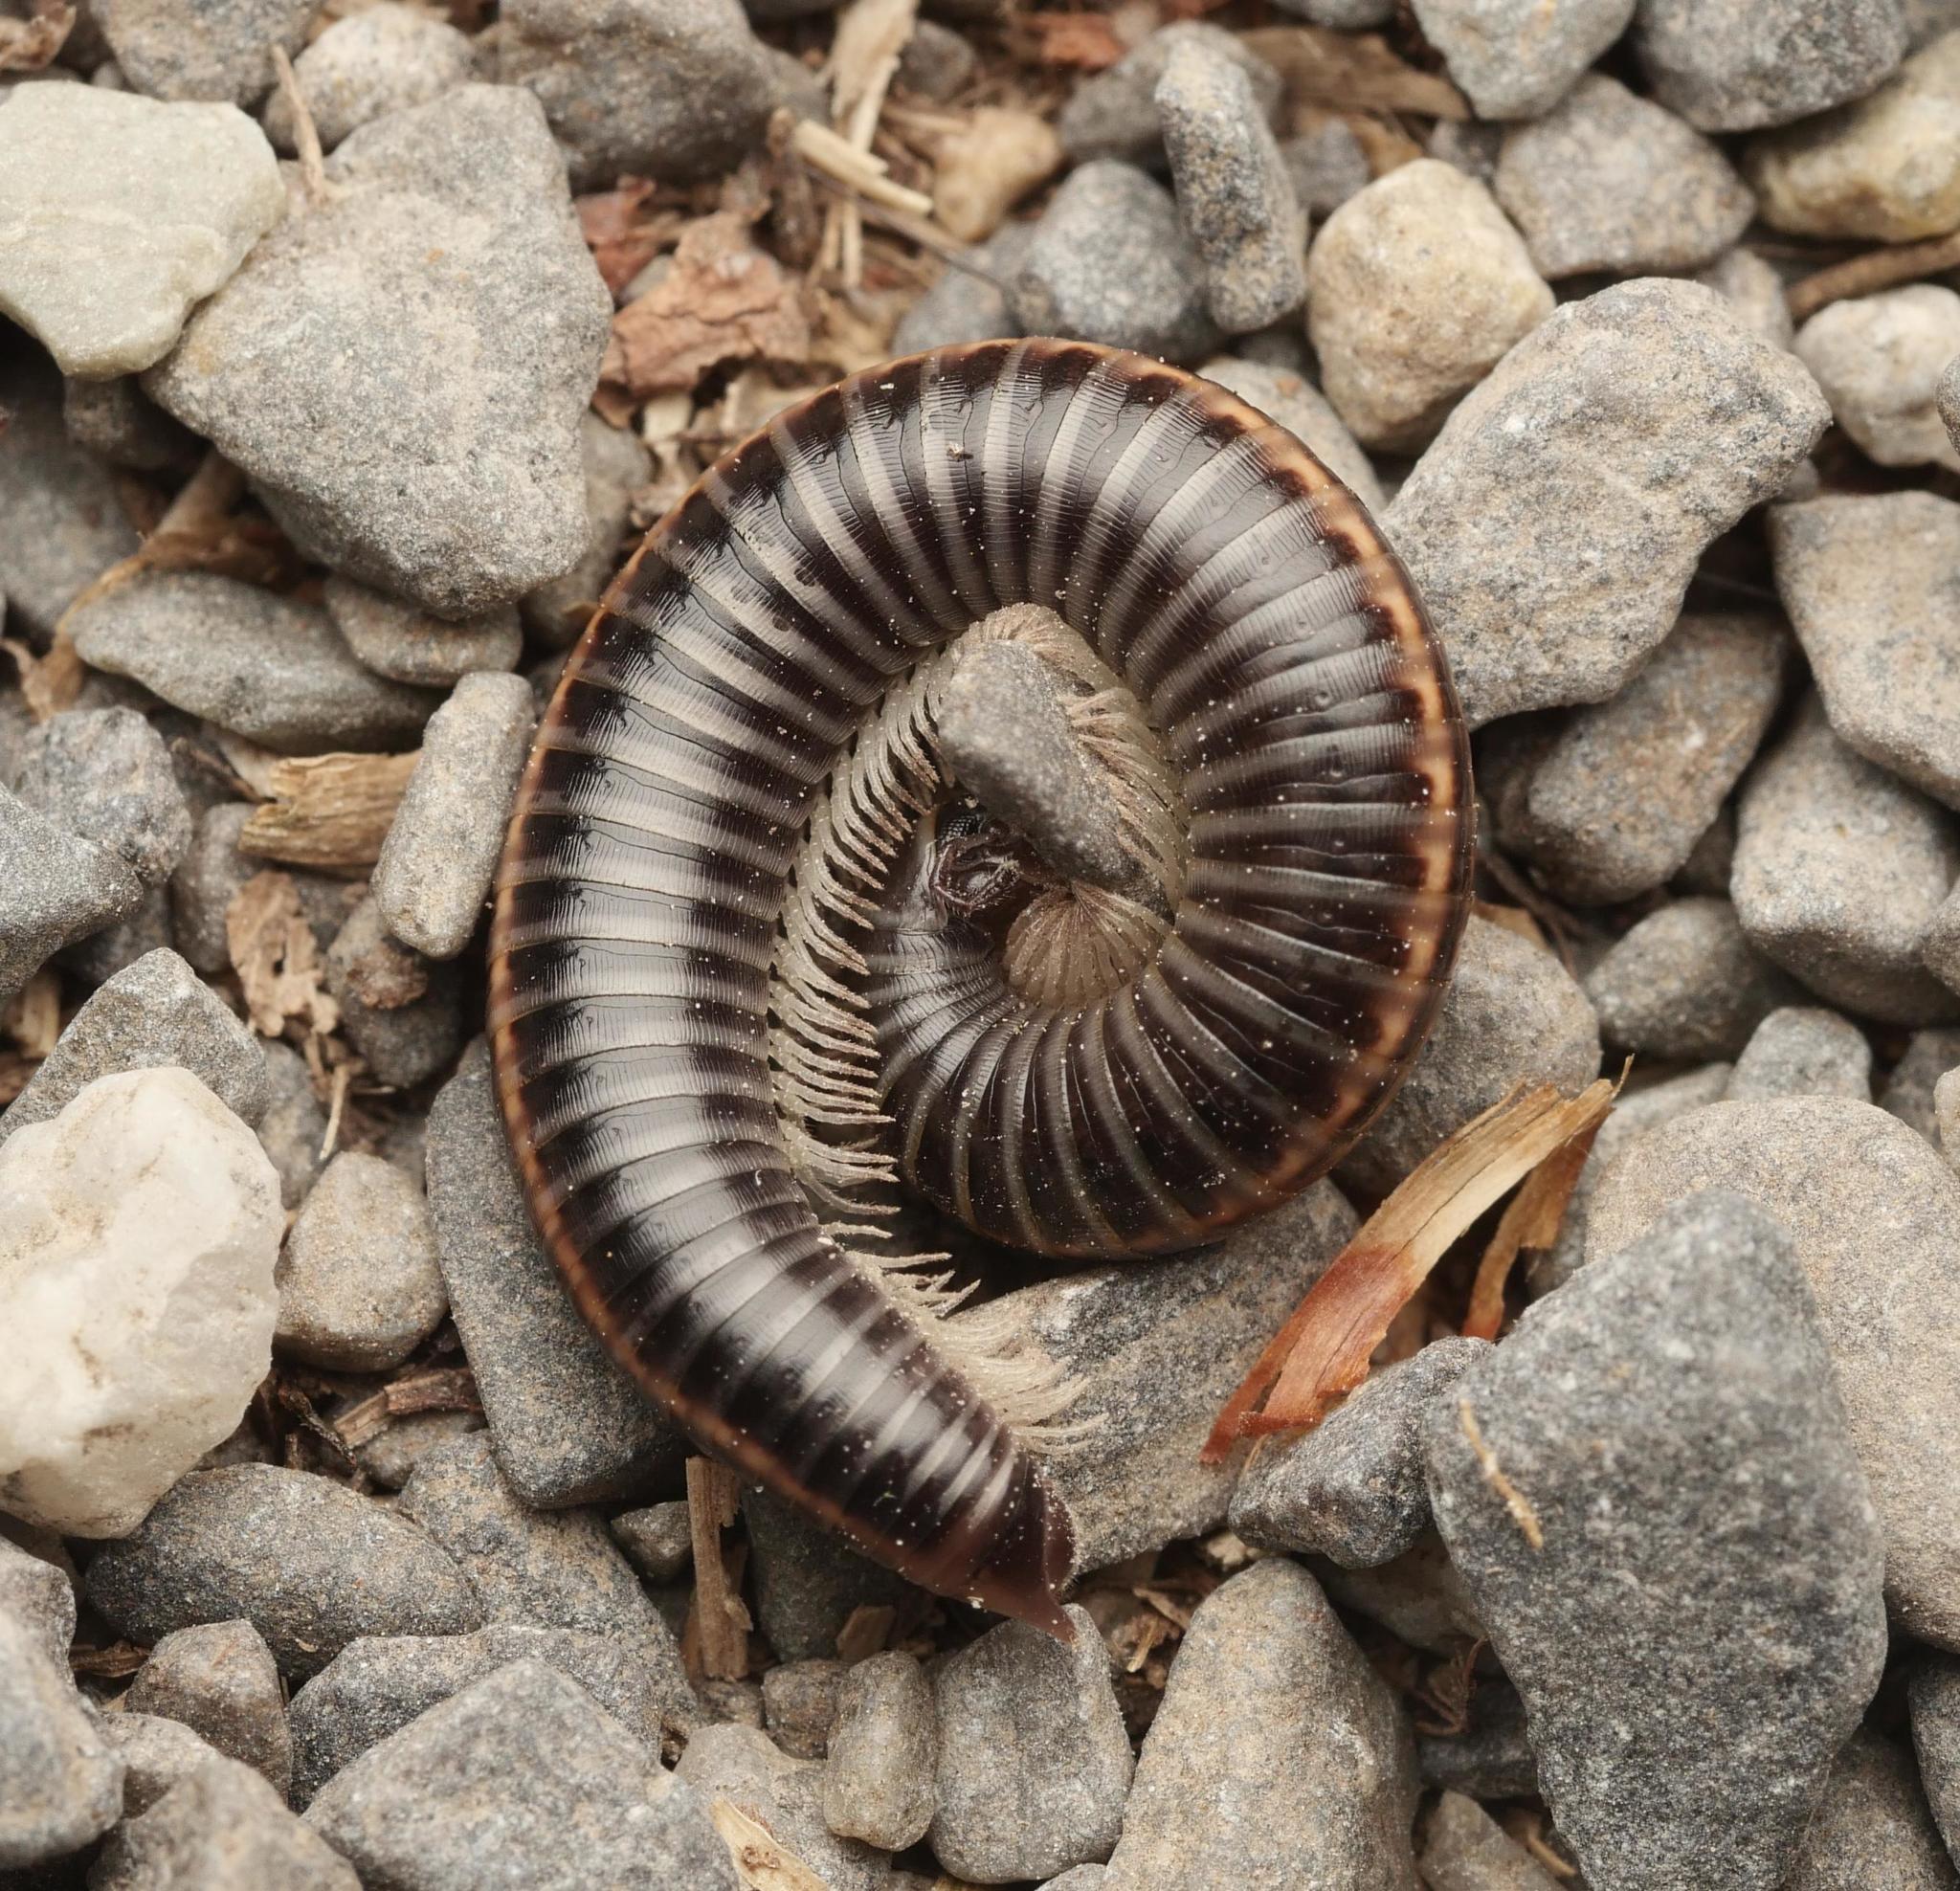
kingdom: Animalia
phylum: Arthropoda
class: Diplopoda
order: Julida
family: Julidae
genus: Ommatoiulus
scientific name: Ommatoiulus sabulosus
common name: Striped millipede
